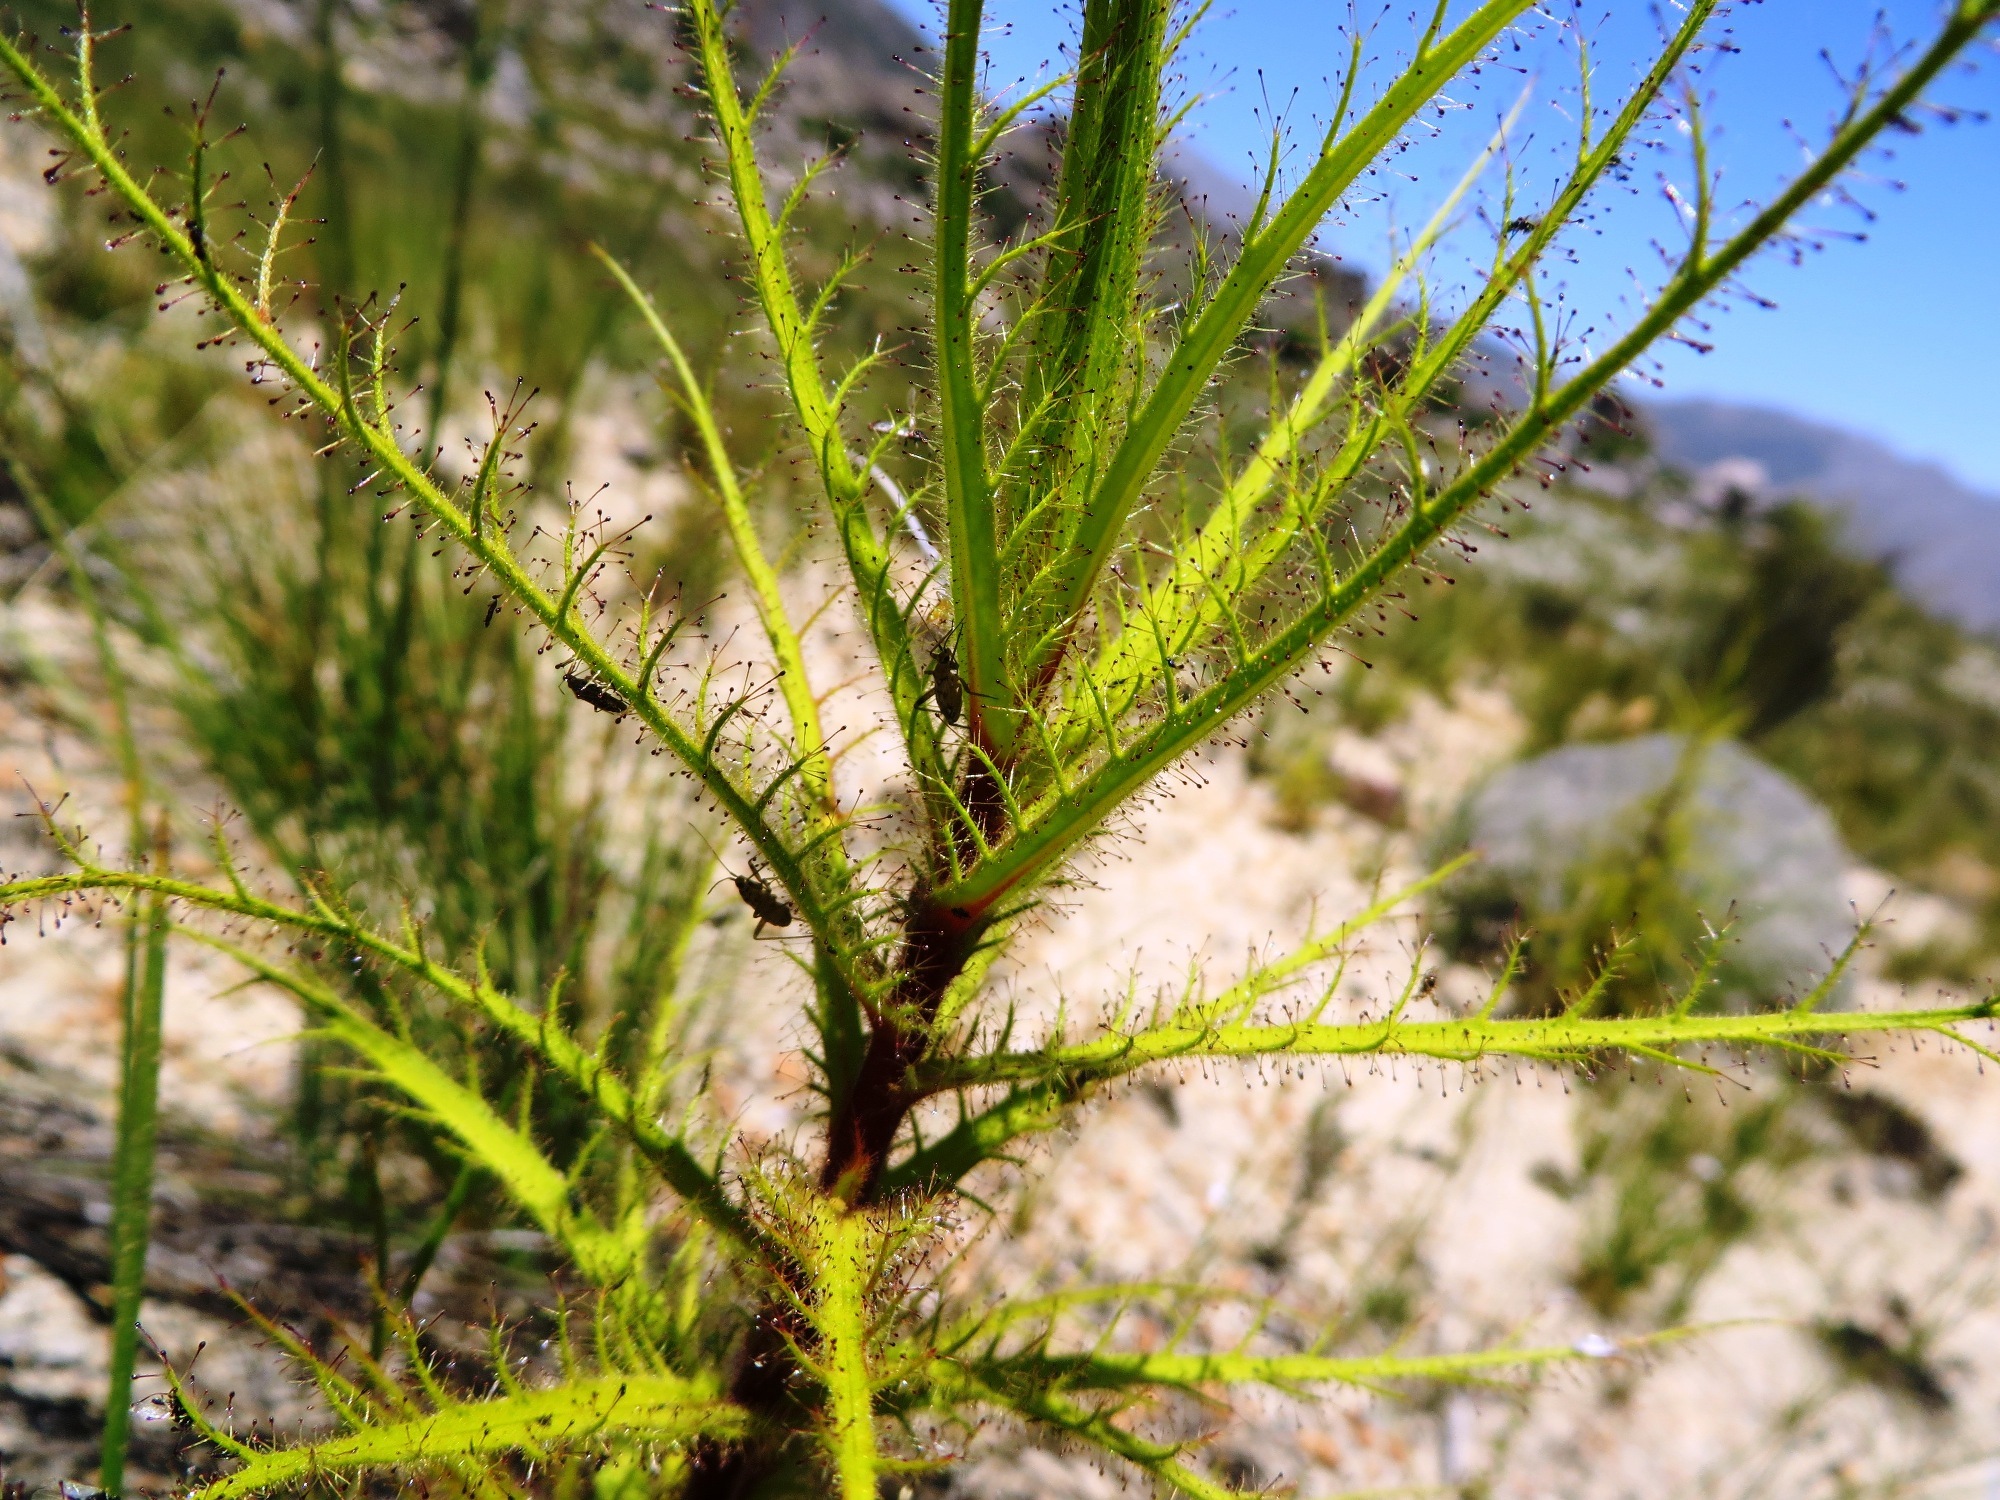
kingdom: Animalia
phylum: Arthropoda
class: Insecta
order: Hemiptera
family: Miridae
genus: Pameridea
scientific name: Pameridea marlothi
